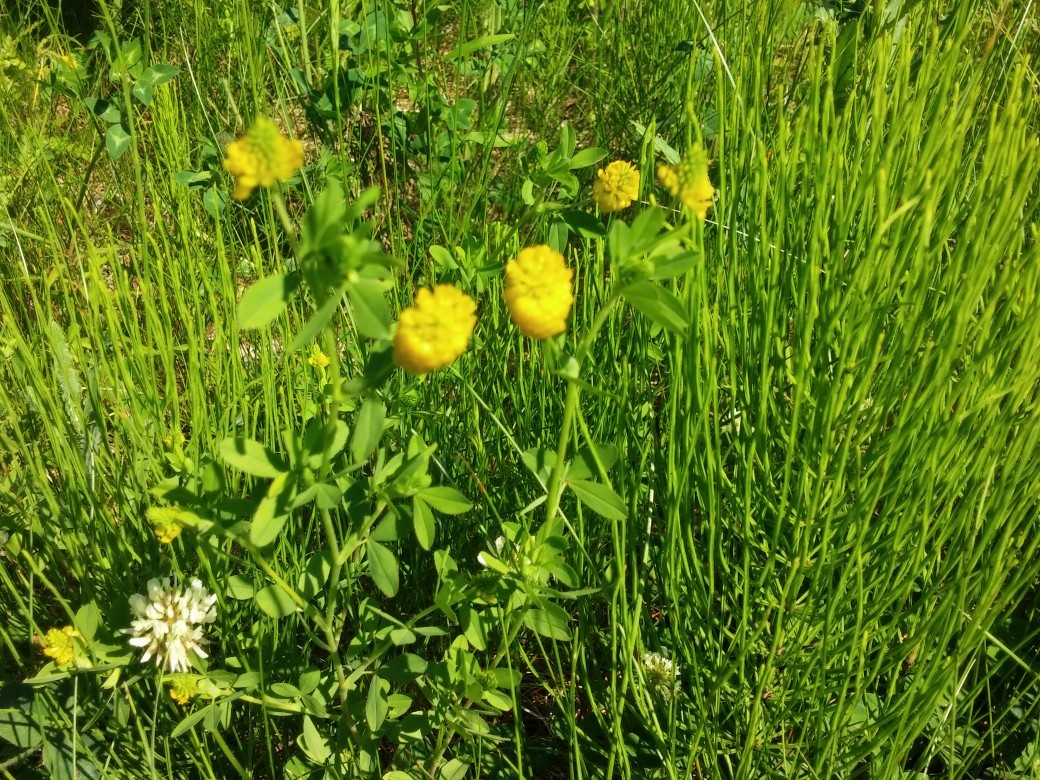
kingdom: Plantae
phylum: Tracheophyta
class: Magnoliopsida
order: Fabales
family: Fabaceae
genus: Trifolium
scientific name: Trifolium aureum
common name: Golden clover
